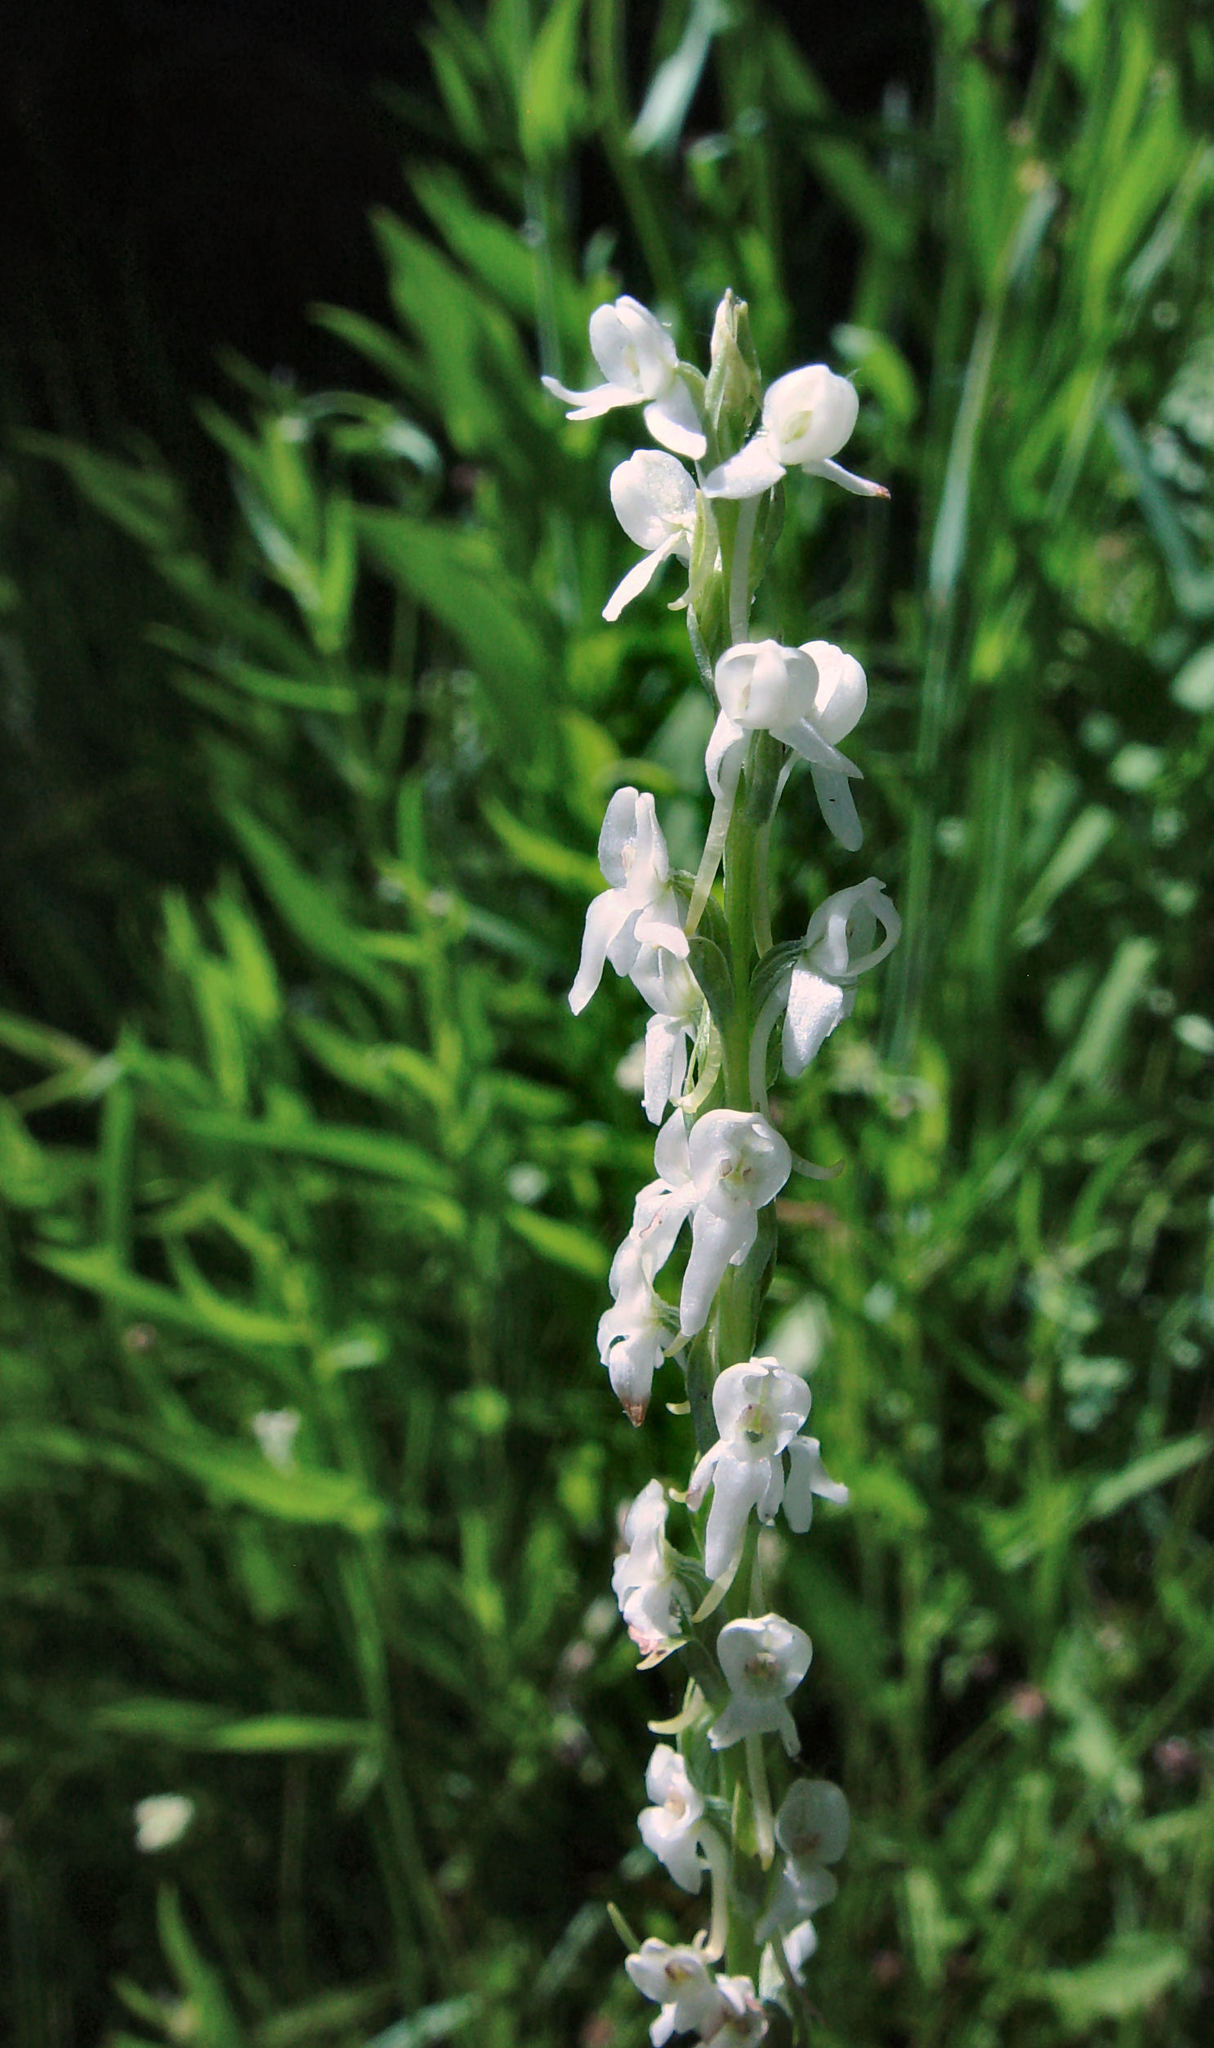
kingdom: Plantae
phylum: Tracheophyta
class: Liliopsida
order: Asparagales
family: Orchidaceae
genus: Platanthera
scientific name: Platanthera dilatata
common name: Bog candles
